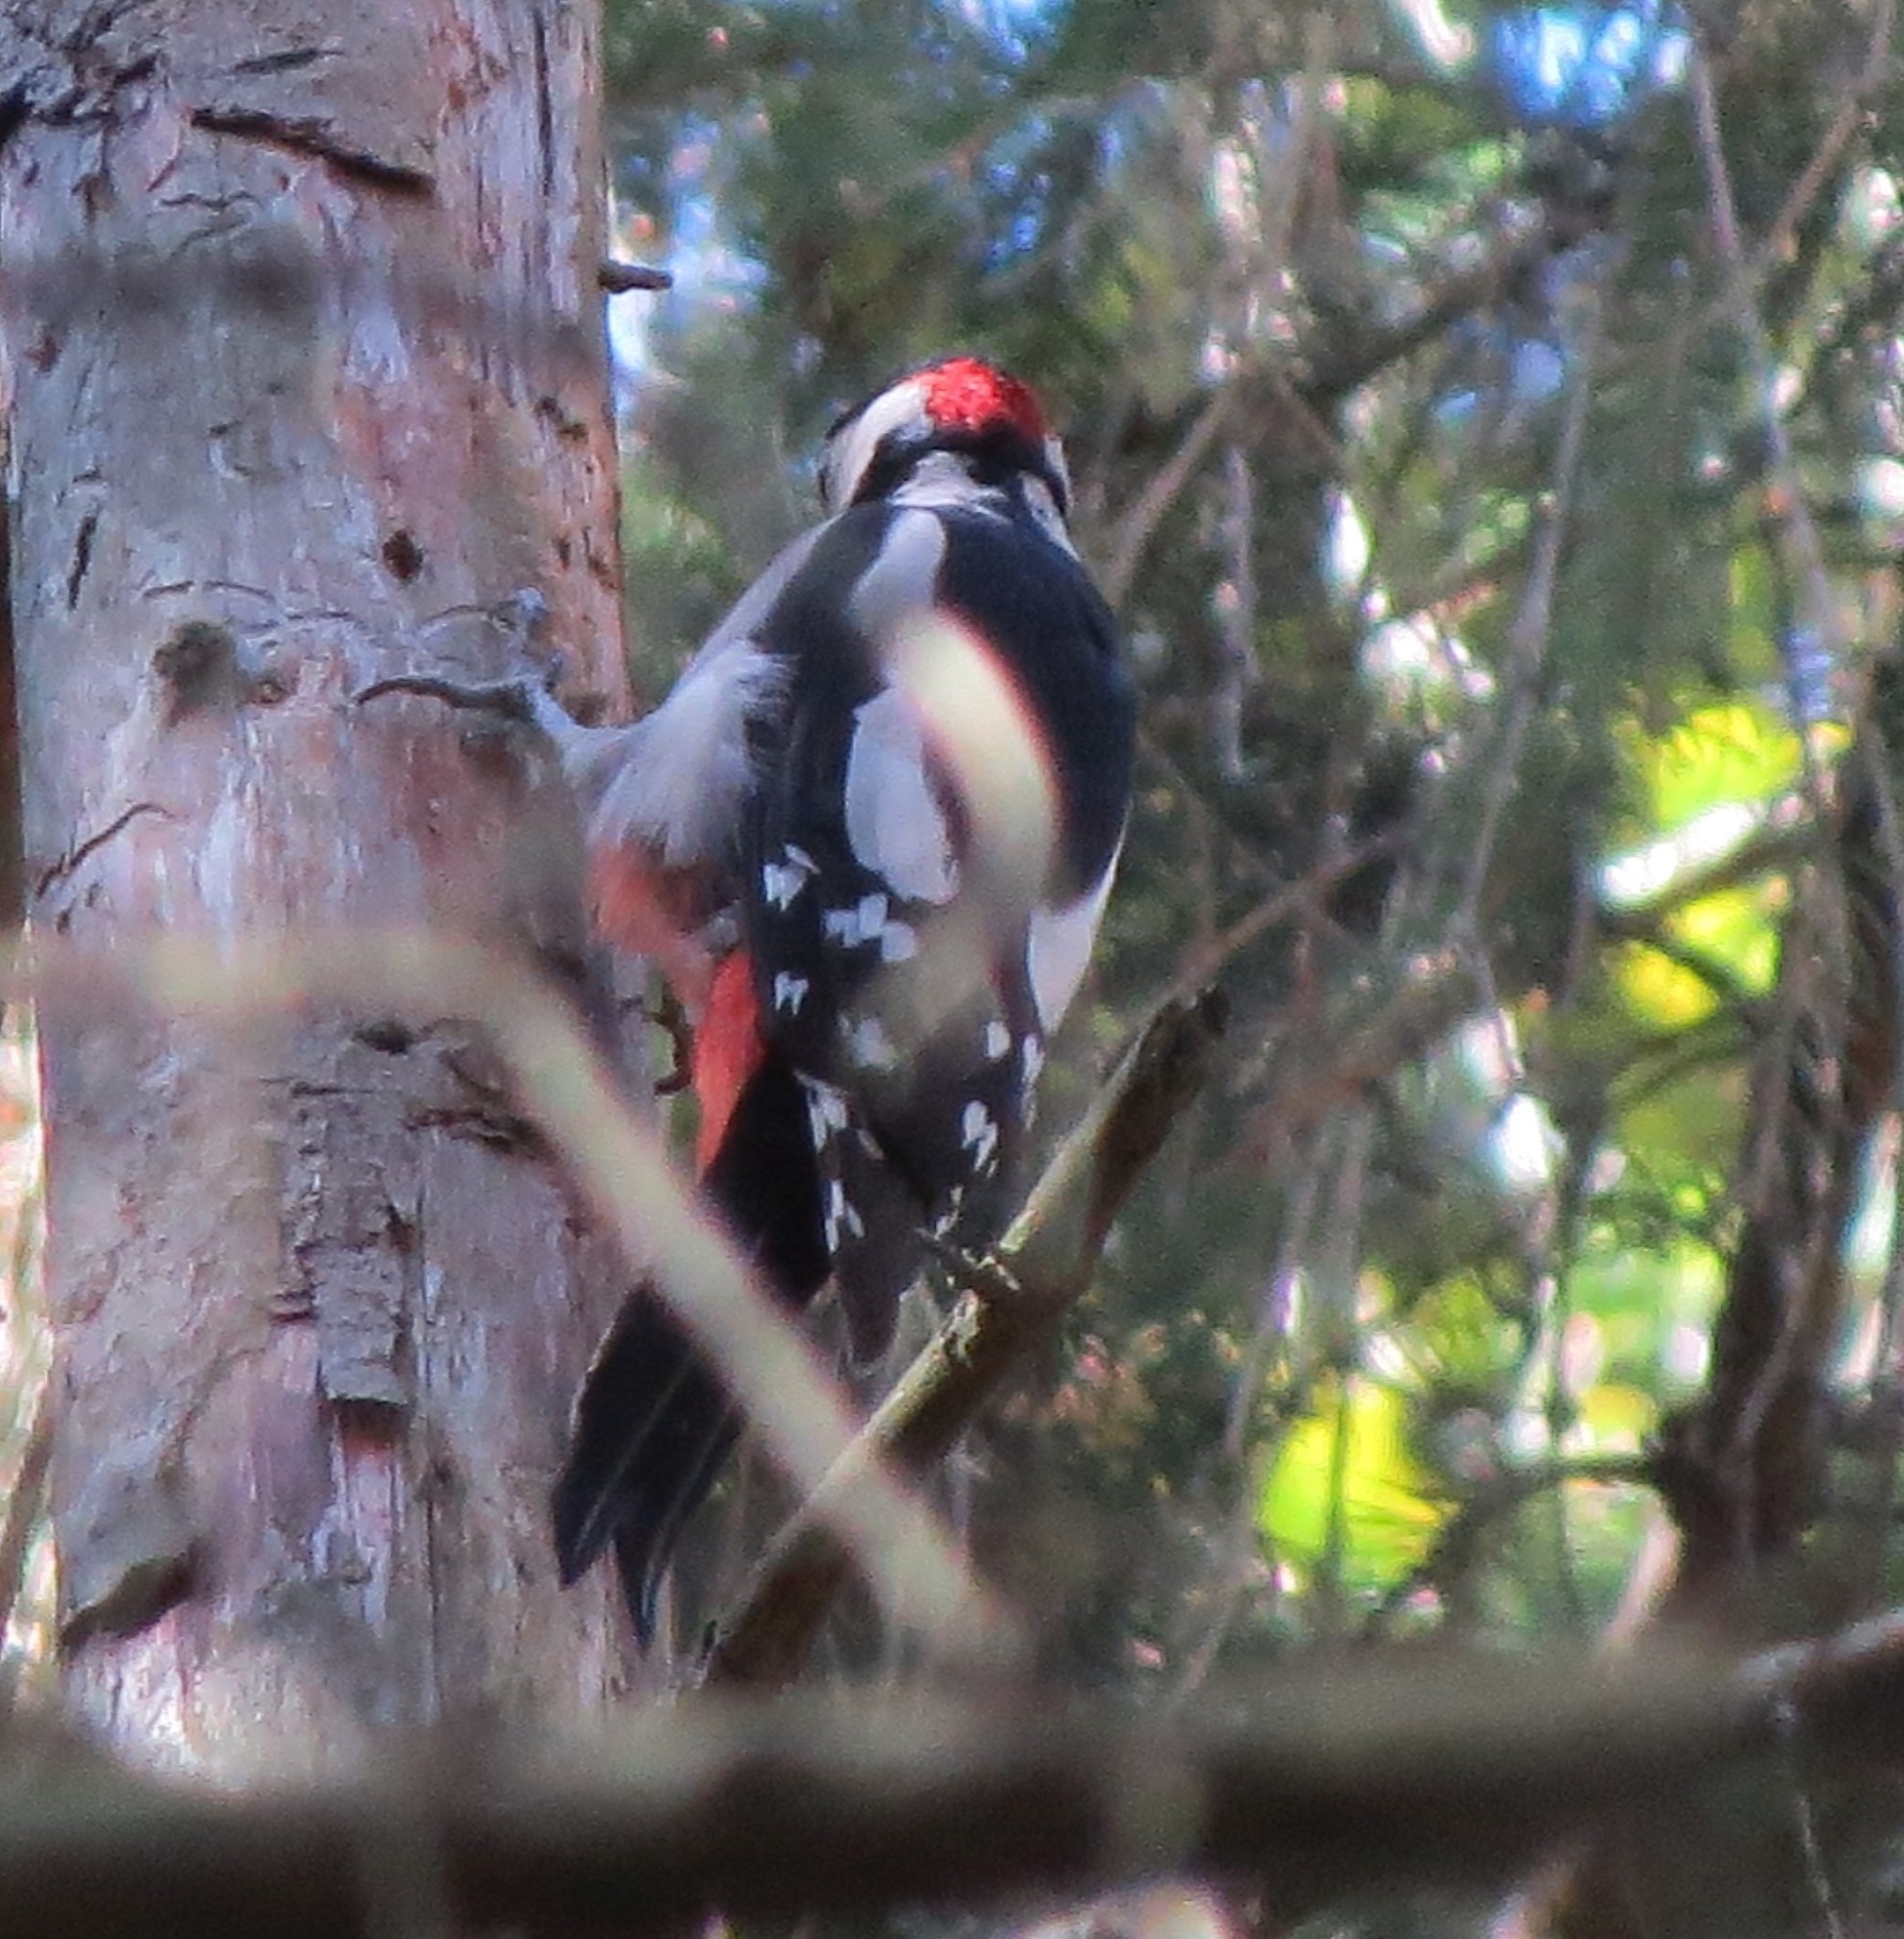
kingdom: Animalia
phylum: Chordata
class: Aves
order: Piciformes
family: Picidae
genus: Dendrocopos
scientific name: Dendrocopos major
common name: Great spotted woodpecker
